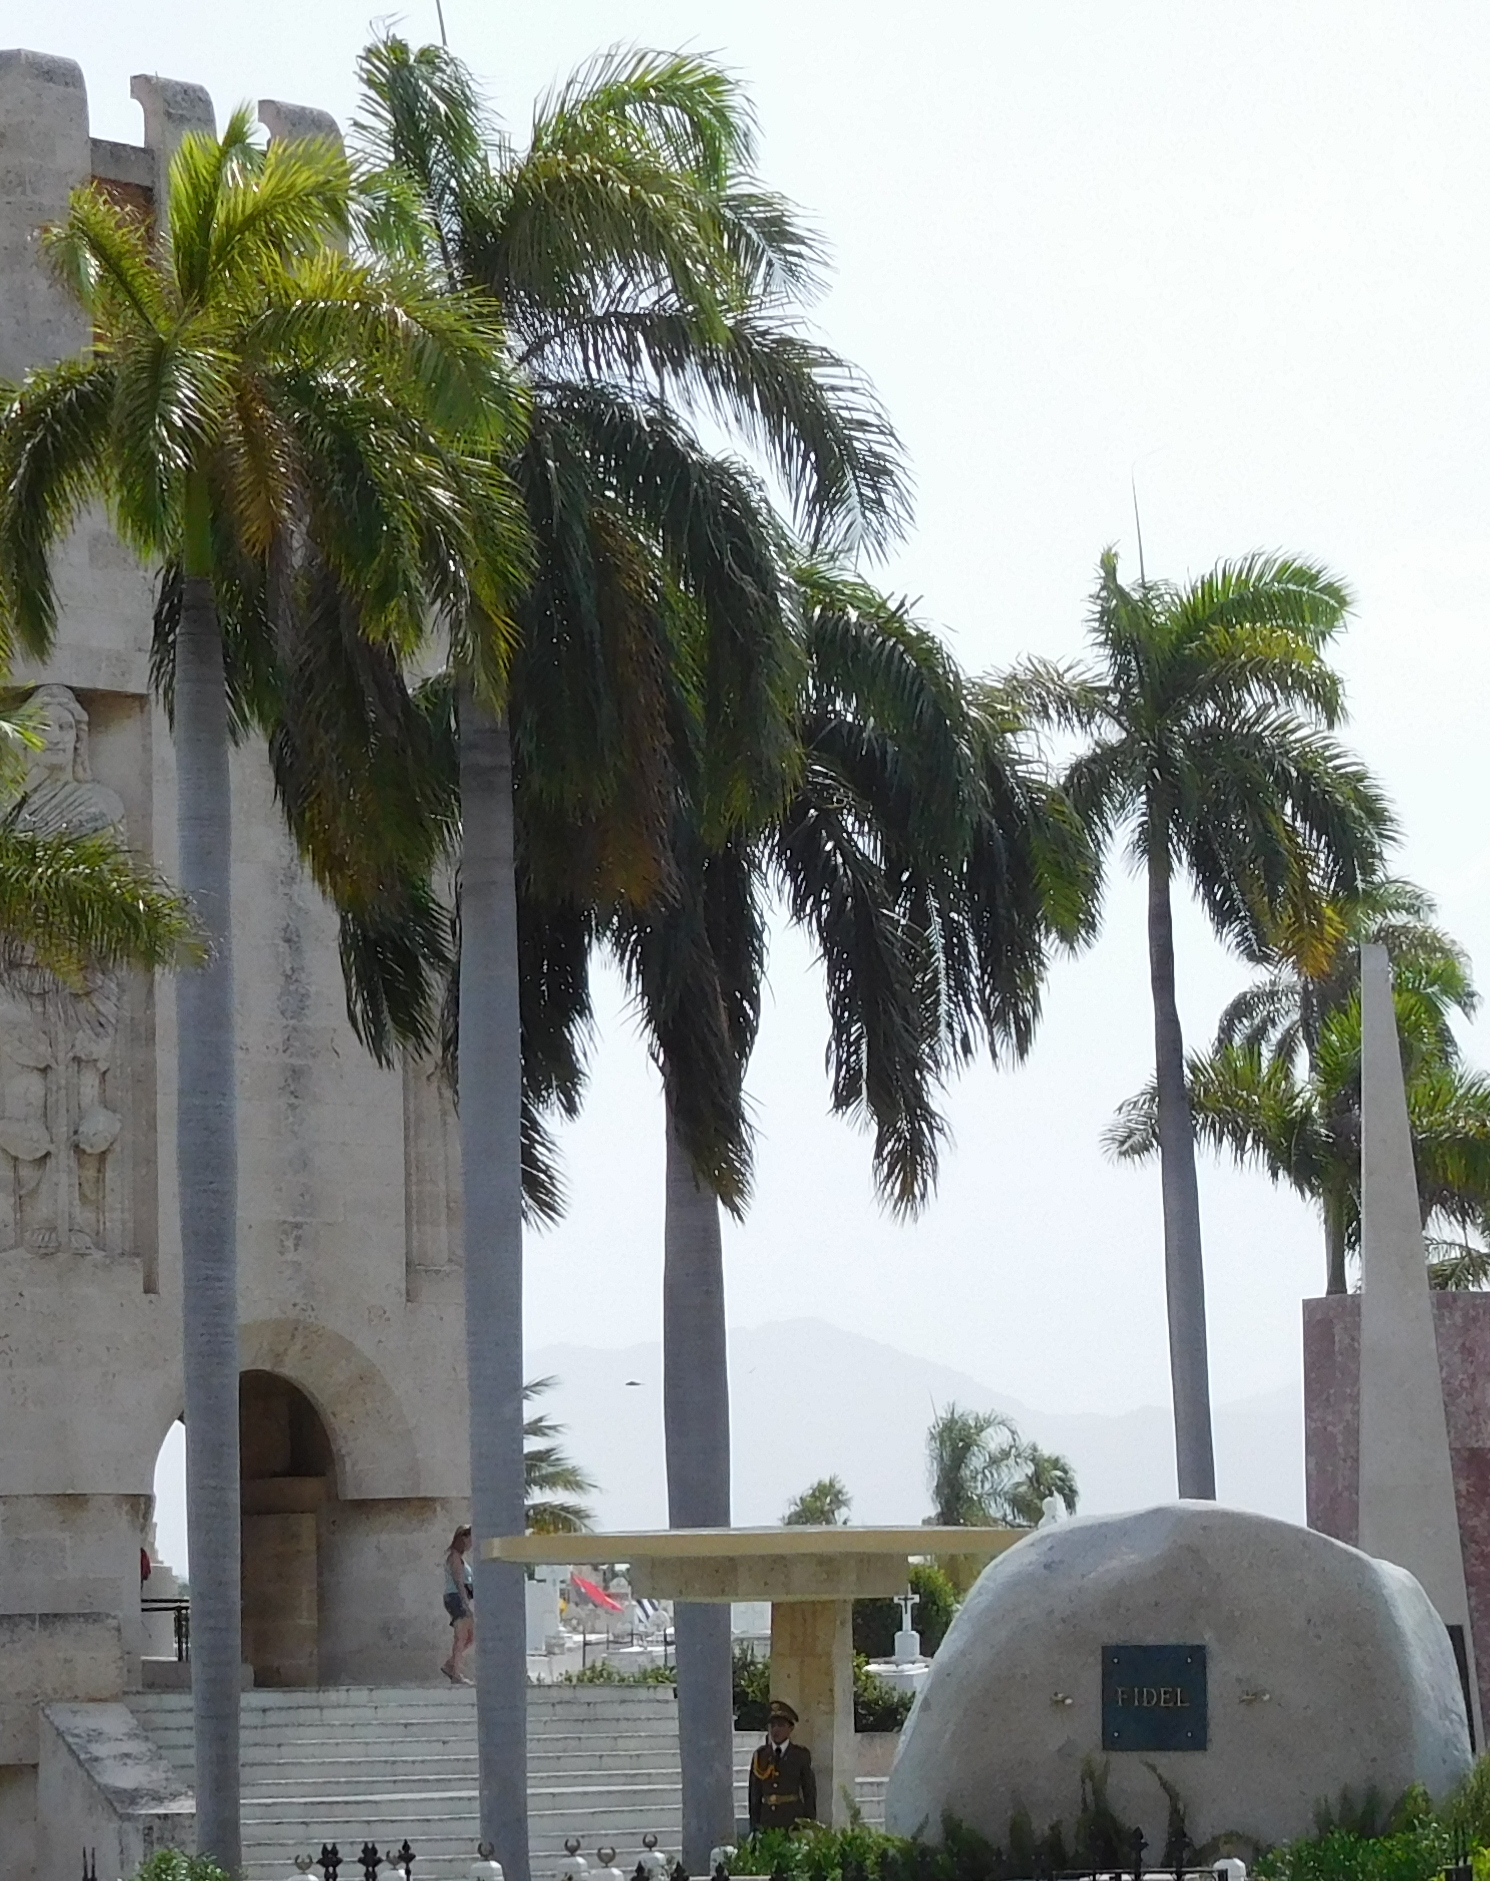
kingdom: Plantae
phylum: Tracheophyta
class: Liliopsida
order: Arecales
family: Arecaceae
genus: Roystonea
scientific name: Roystonea regia
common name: Florida royal palm
